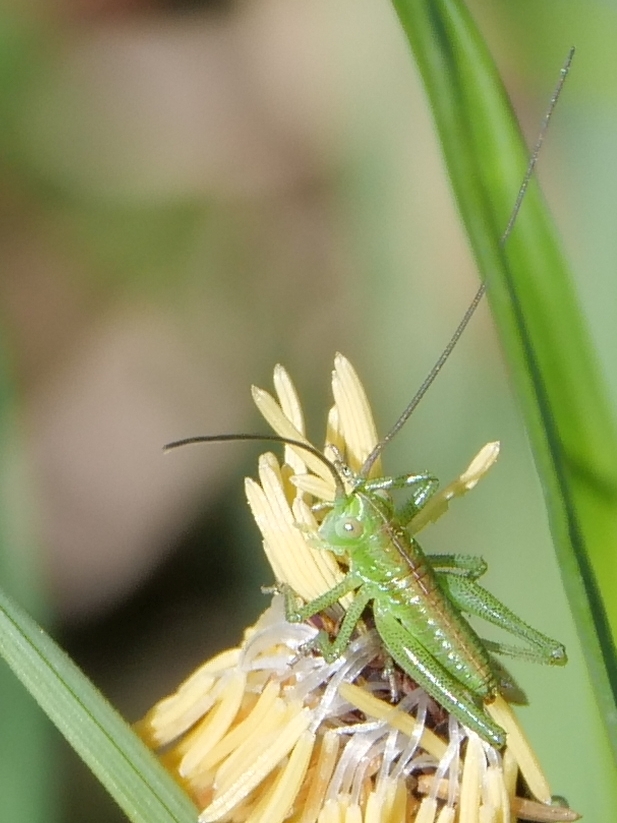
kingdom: Animalia
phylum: Arthropoda
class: Insecta
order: Orthoptera
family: Tettigoniidae
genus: Tettigonia
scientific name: Tettigonia viridissima
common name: Great green bush-cricket
